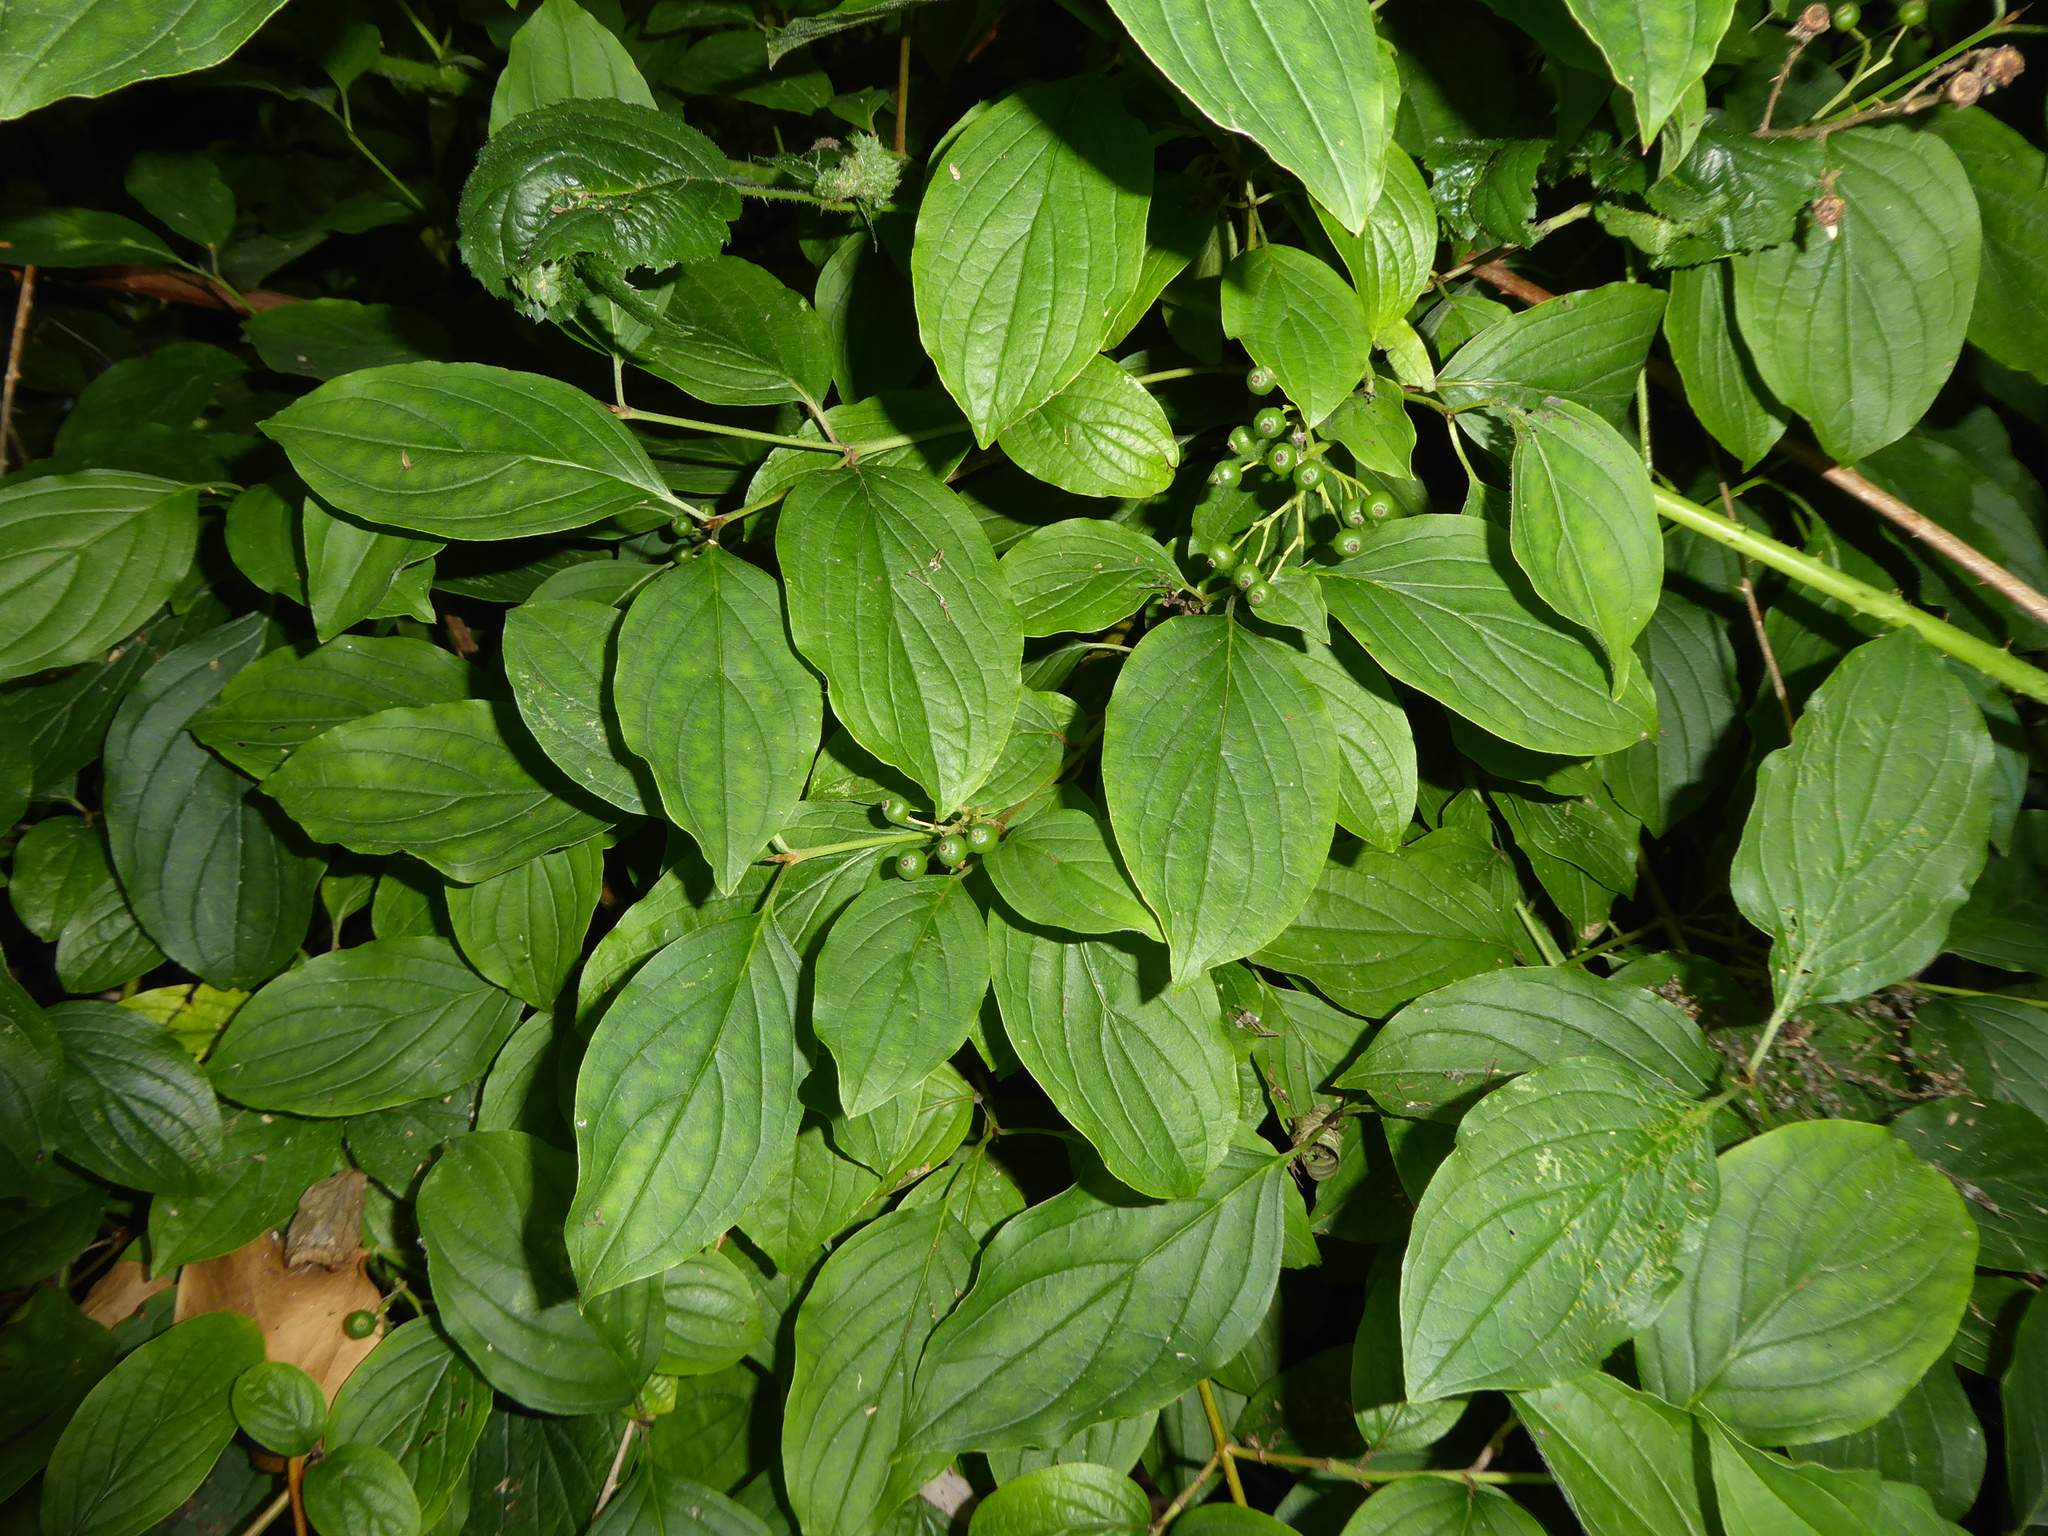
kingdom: Plantae
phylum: Tracheophyta
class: Magnoliopsida
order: Cornales
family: Cornaceae
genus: Cornus
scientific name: Cornus sanguinea
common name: Dogwood
